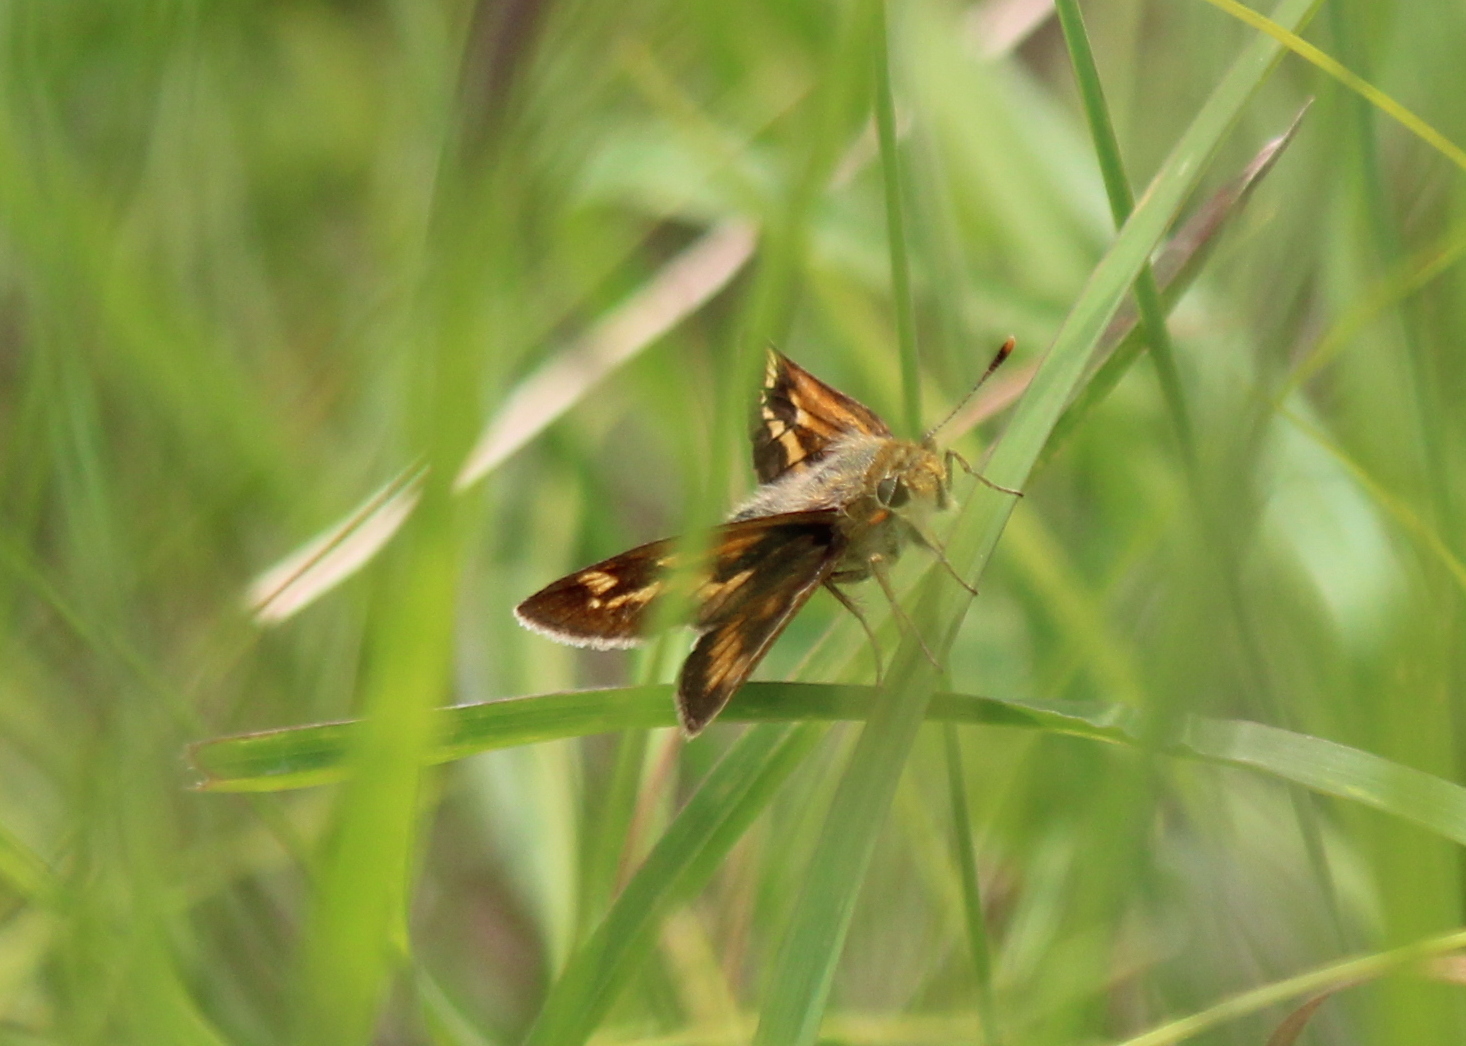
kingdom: Animalia
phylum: Arthropoda
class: Insecta
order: Lepidoptera
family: Hesperiidae
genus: Polites
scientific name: Polites mystic
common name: Long dash
